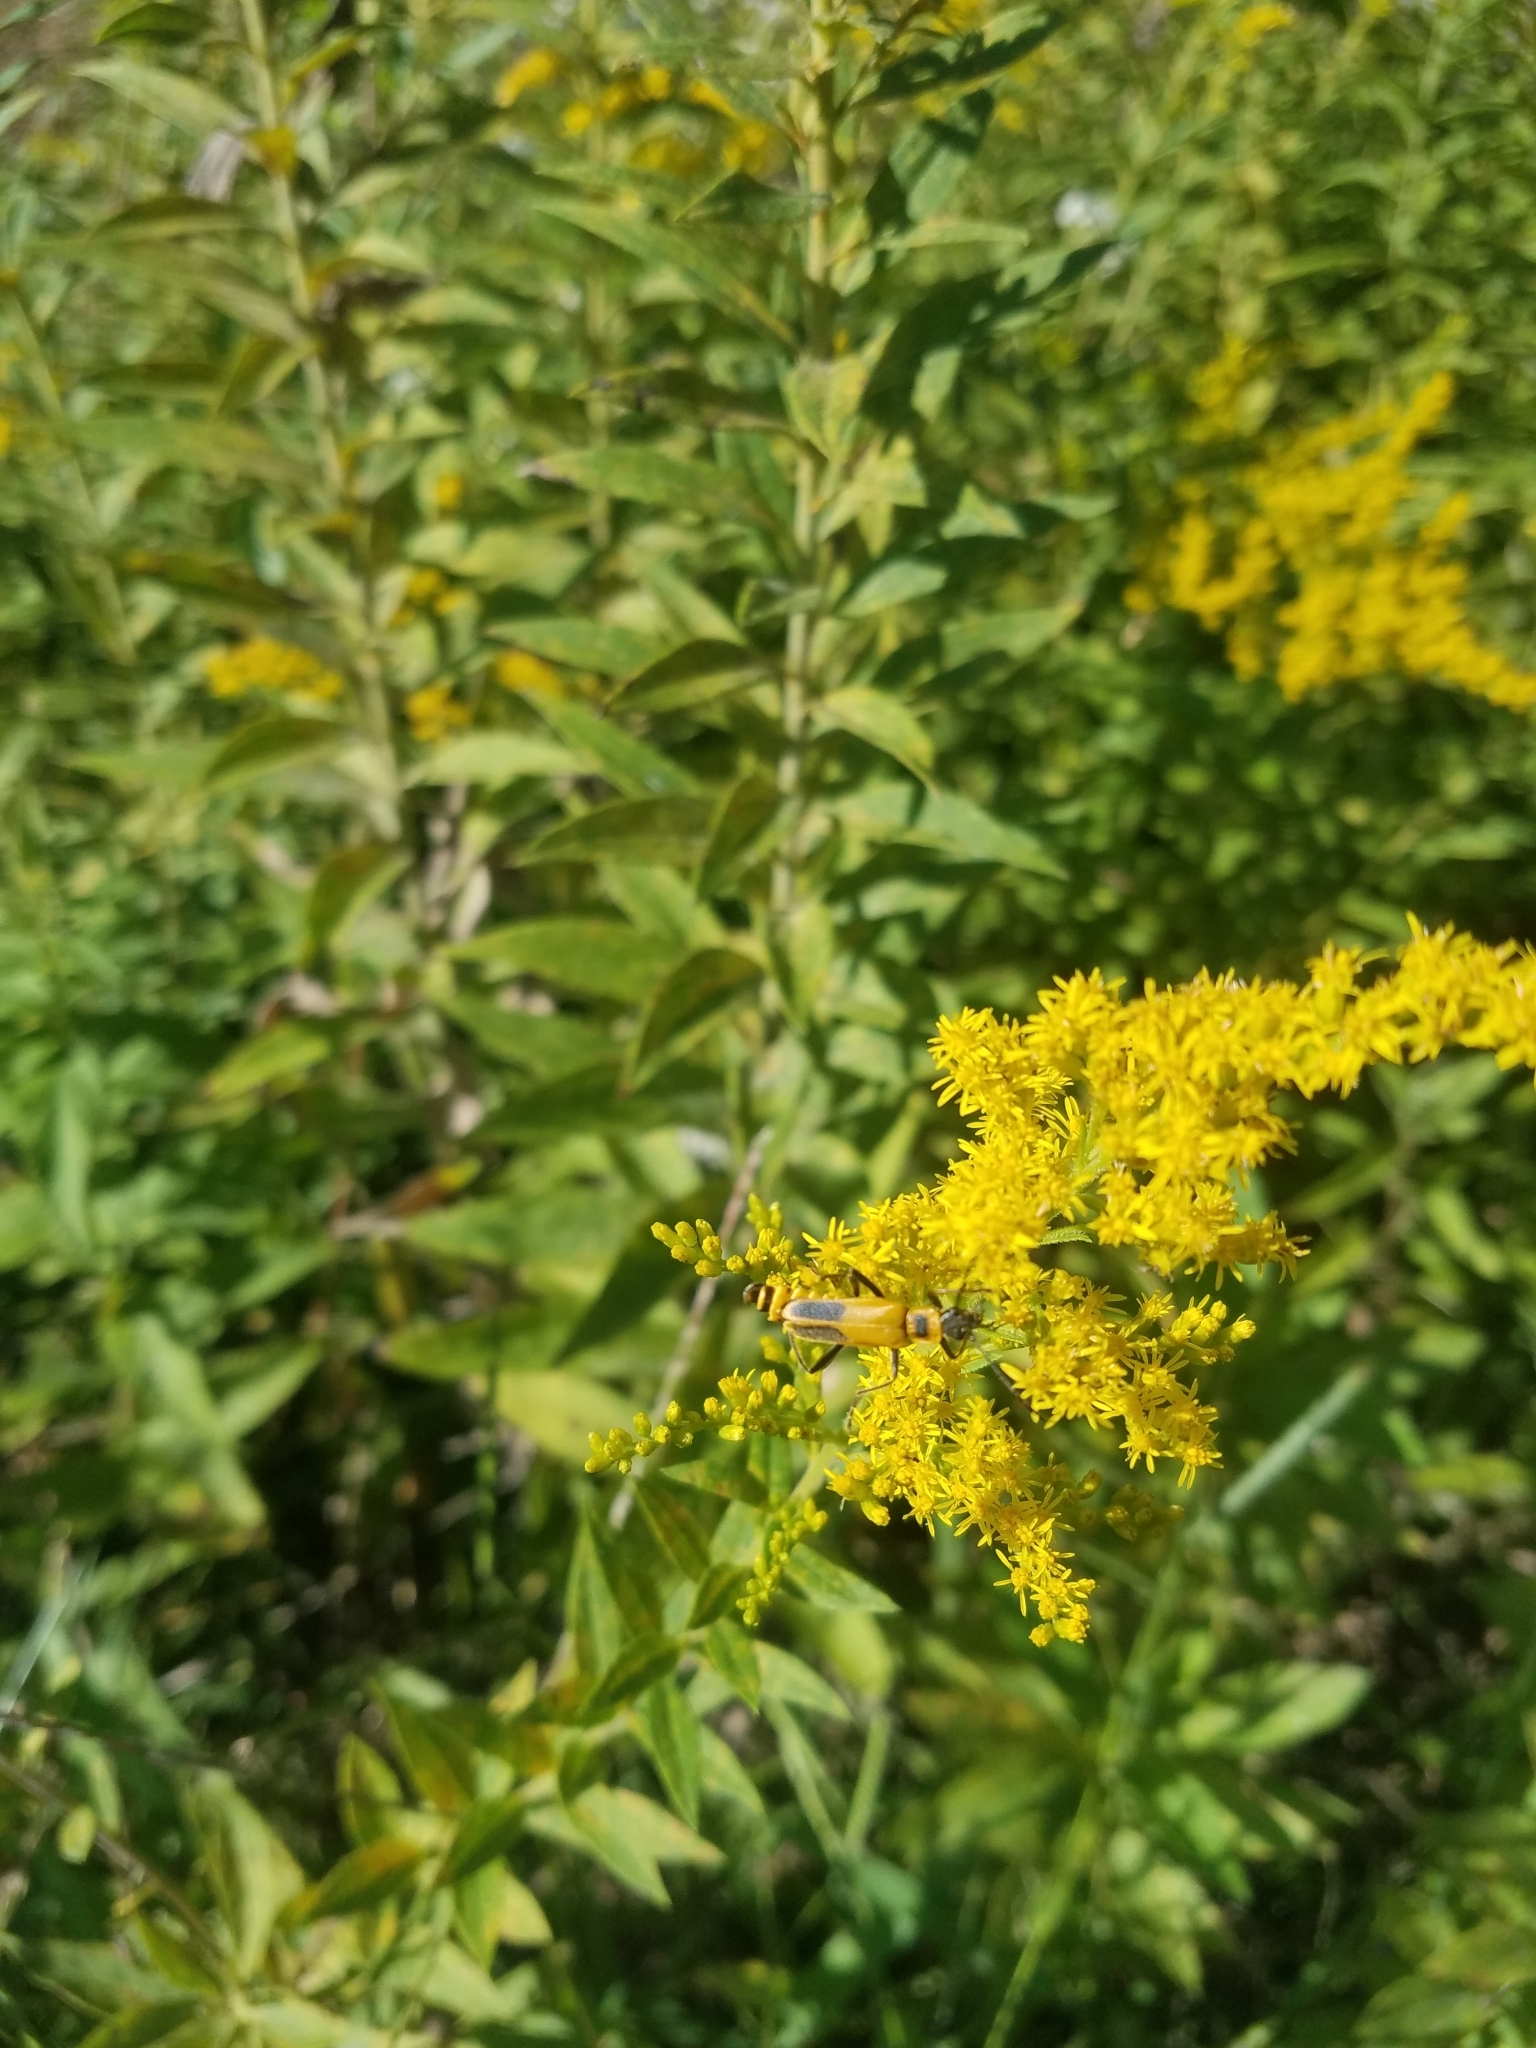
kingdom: Animalia
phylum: Arthropoda
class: Insecta
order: Coleoptera
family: Cantharidae
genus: Chauliognathus
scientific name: Chauliognathus pensylvanicus
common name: Goldenrod soldier beetle
